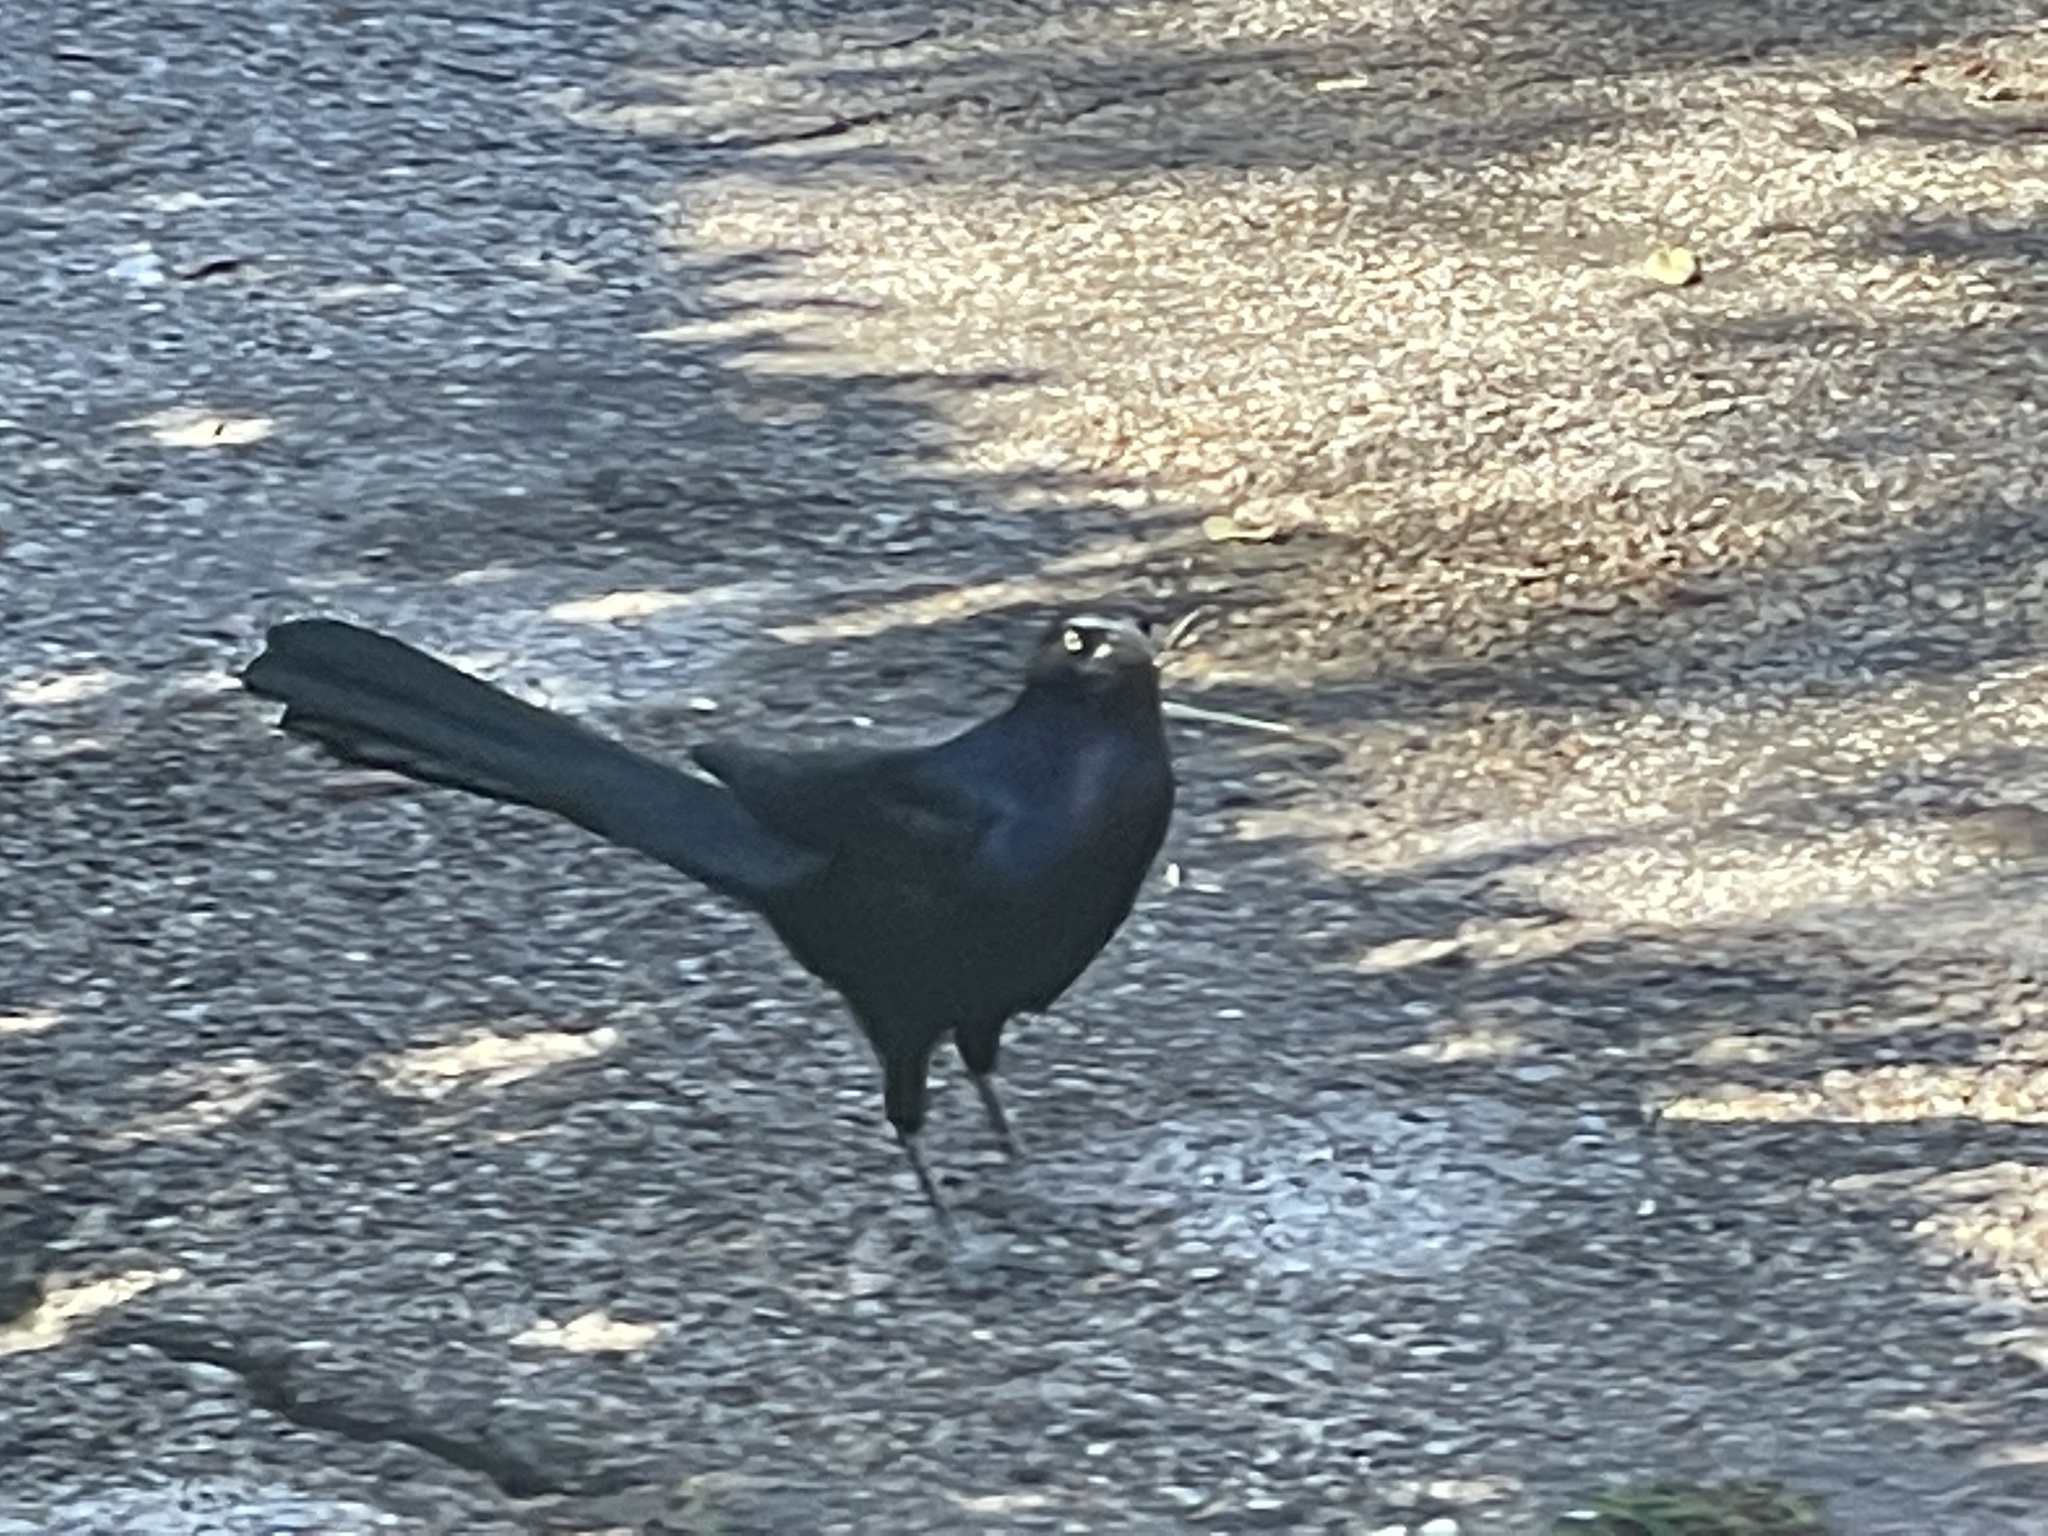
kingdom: Animalia
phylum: Chordata
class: Aves
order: Passeriformes
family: Icteridae
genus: Quiscalus
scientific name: Quiscalus mexicanus
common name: Great-tailed grackle
